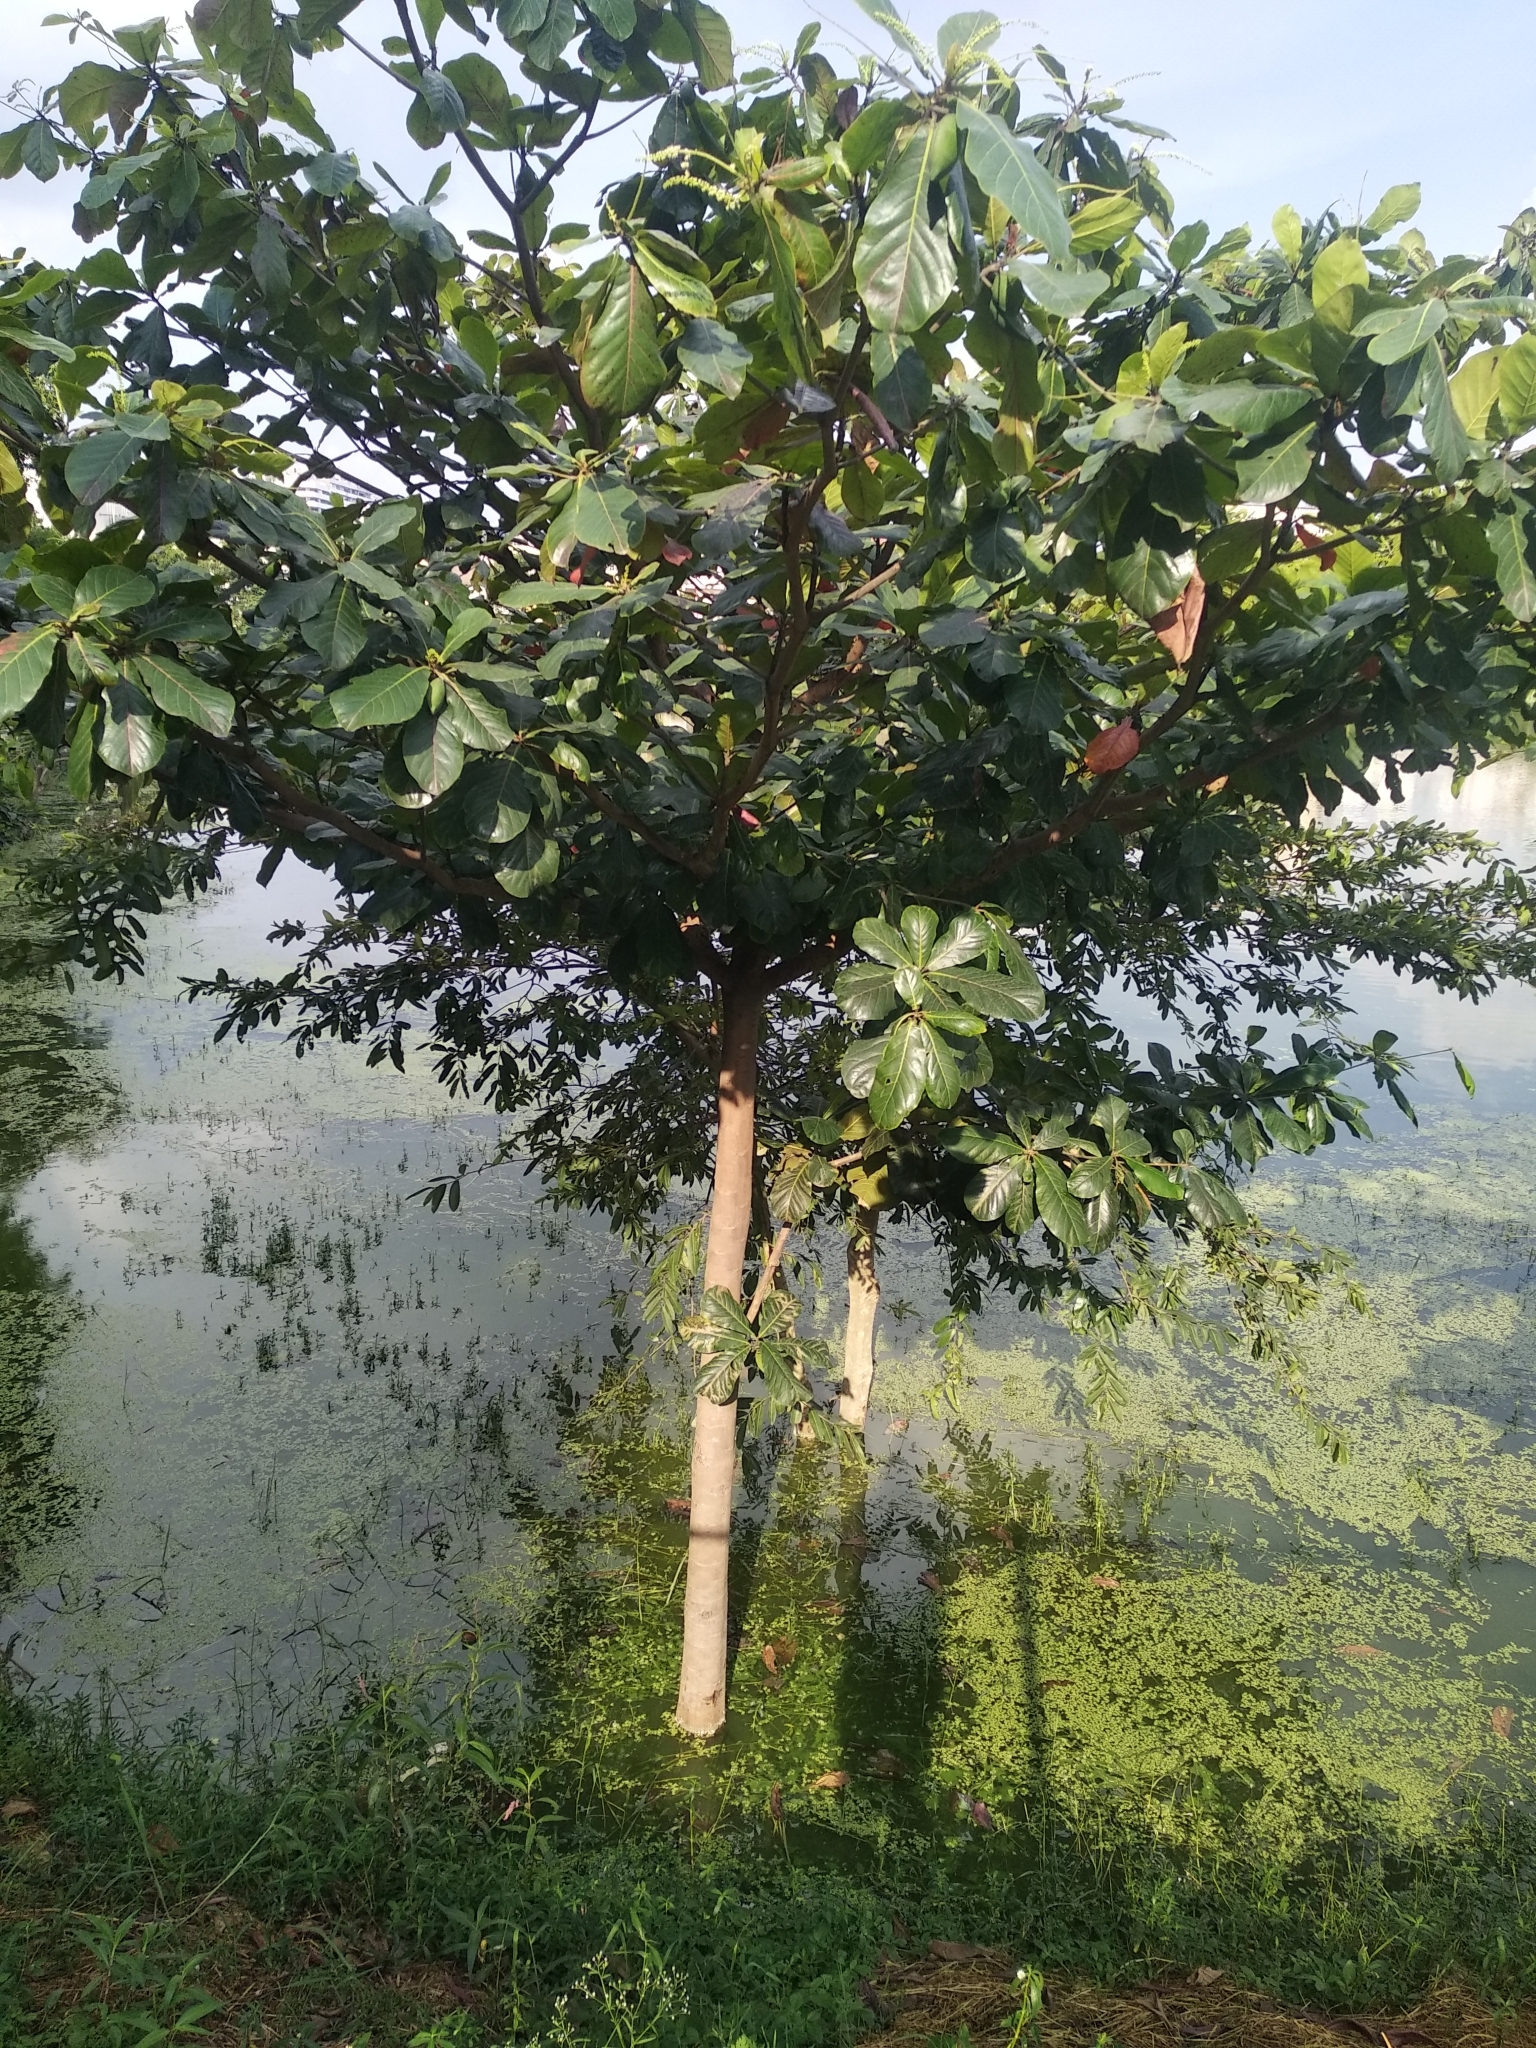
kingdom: Plantae
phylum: Tracheophyta
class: Magnoliopsida
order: Myrtales
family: Combretaceae
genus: Terminalia
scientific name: Terminalia catappa
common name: Tropical almond
